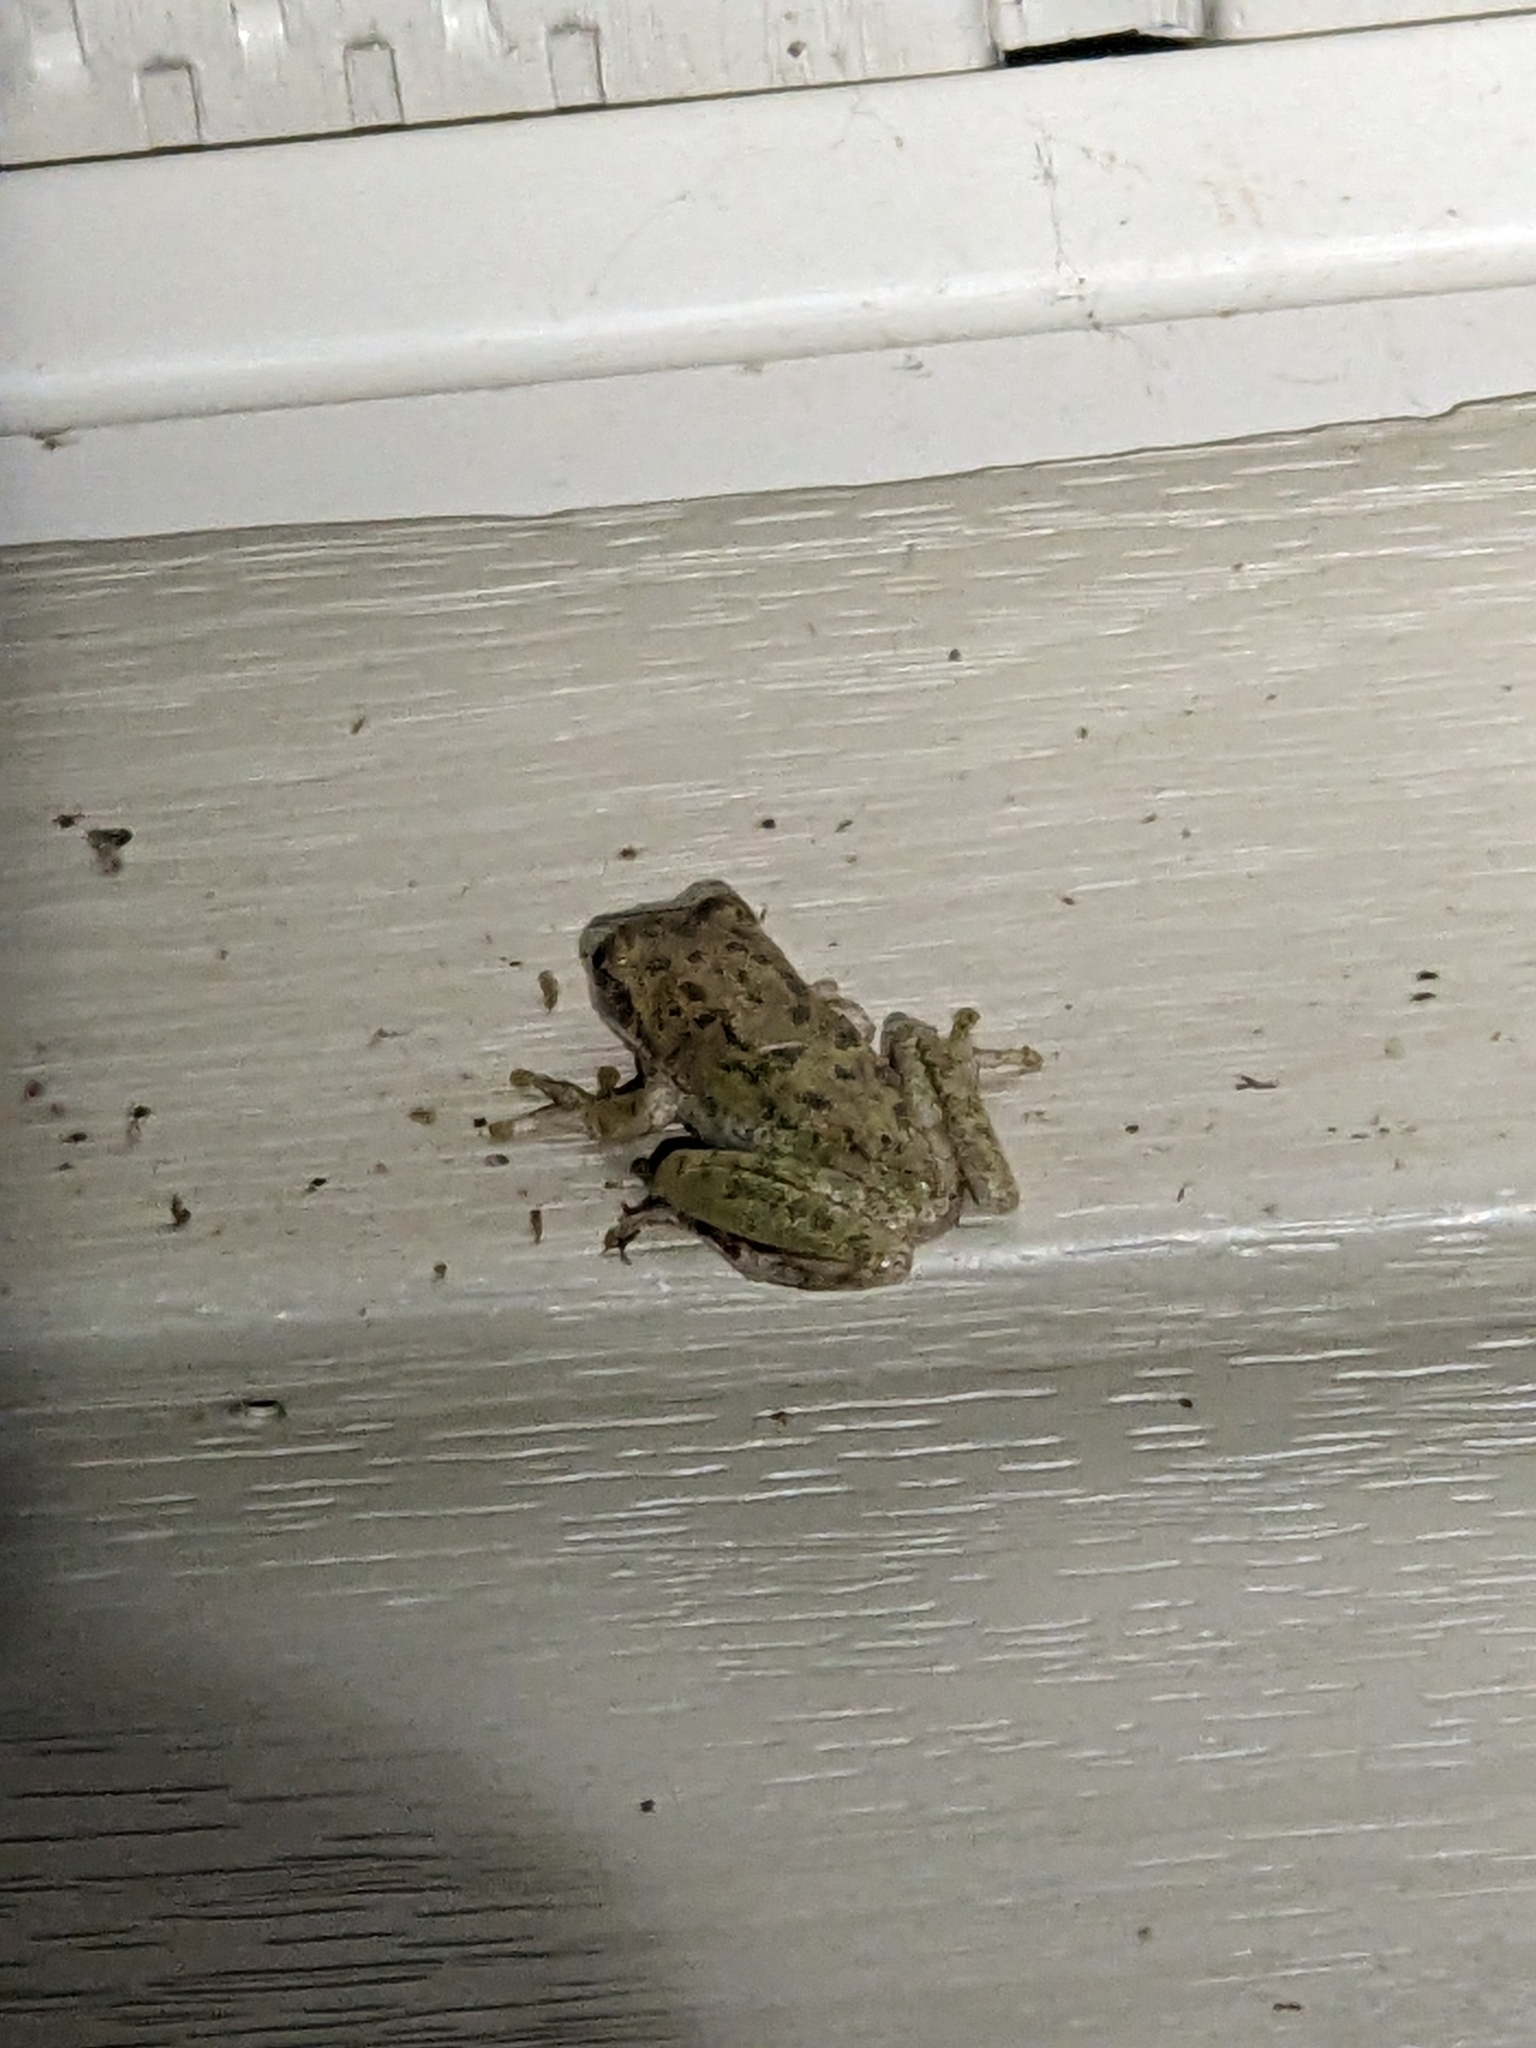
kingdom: Animalia
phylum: Chordata
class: Amphibia
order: Anura
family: Hylidae
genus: Dryophytes
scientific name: Dryophytes squirellus
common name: Squirrel treefrog
